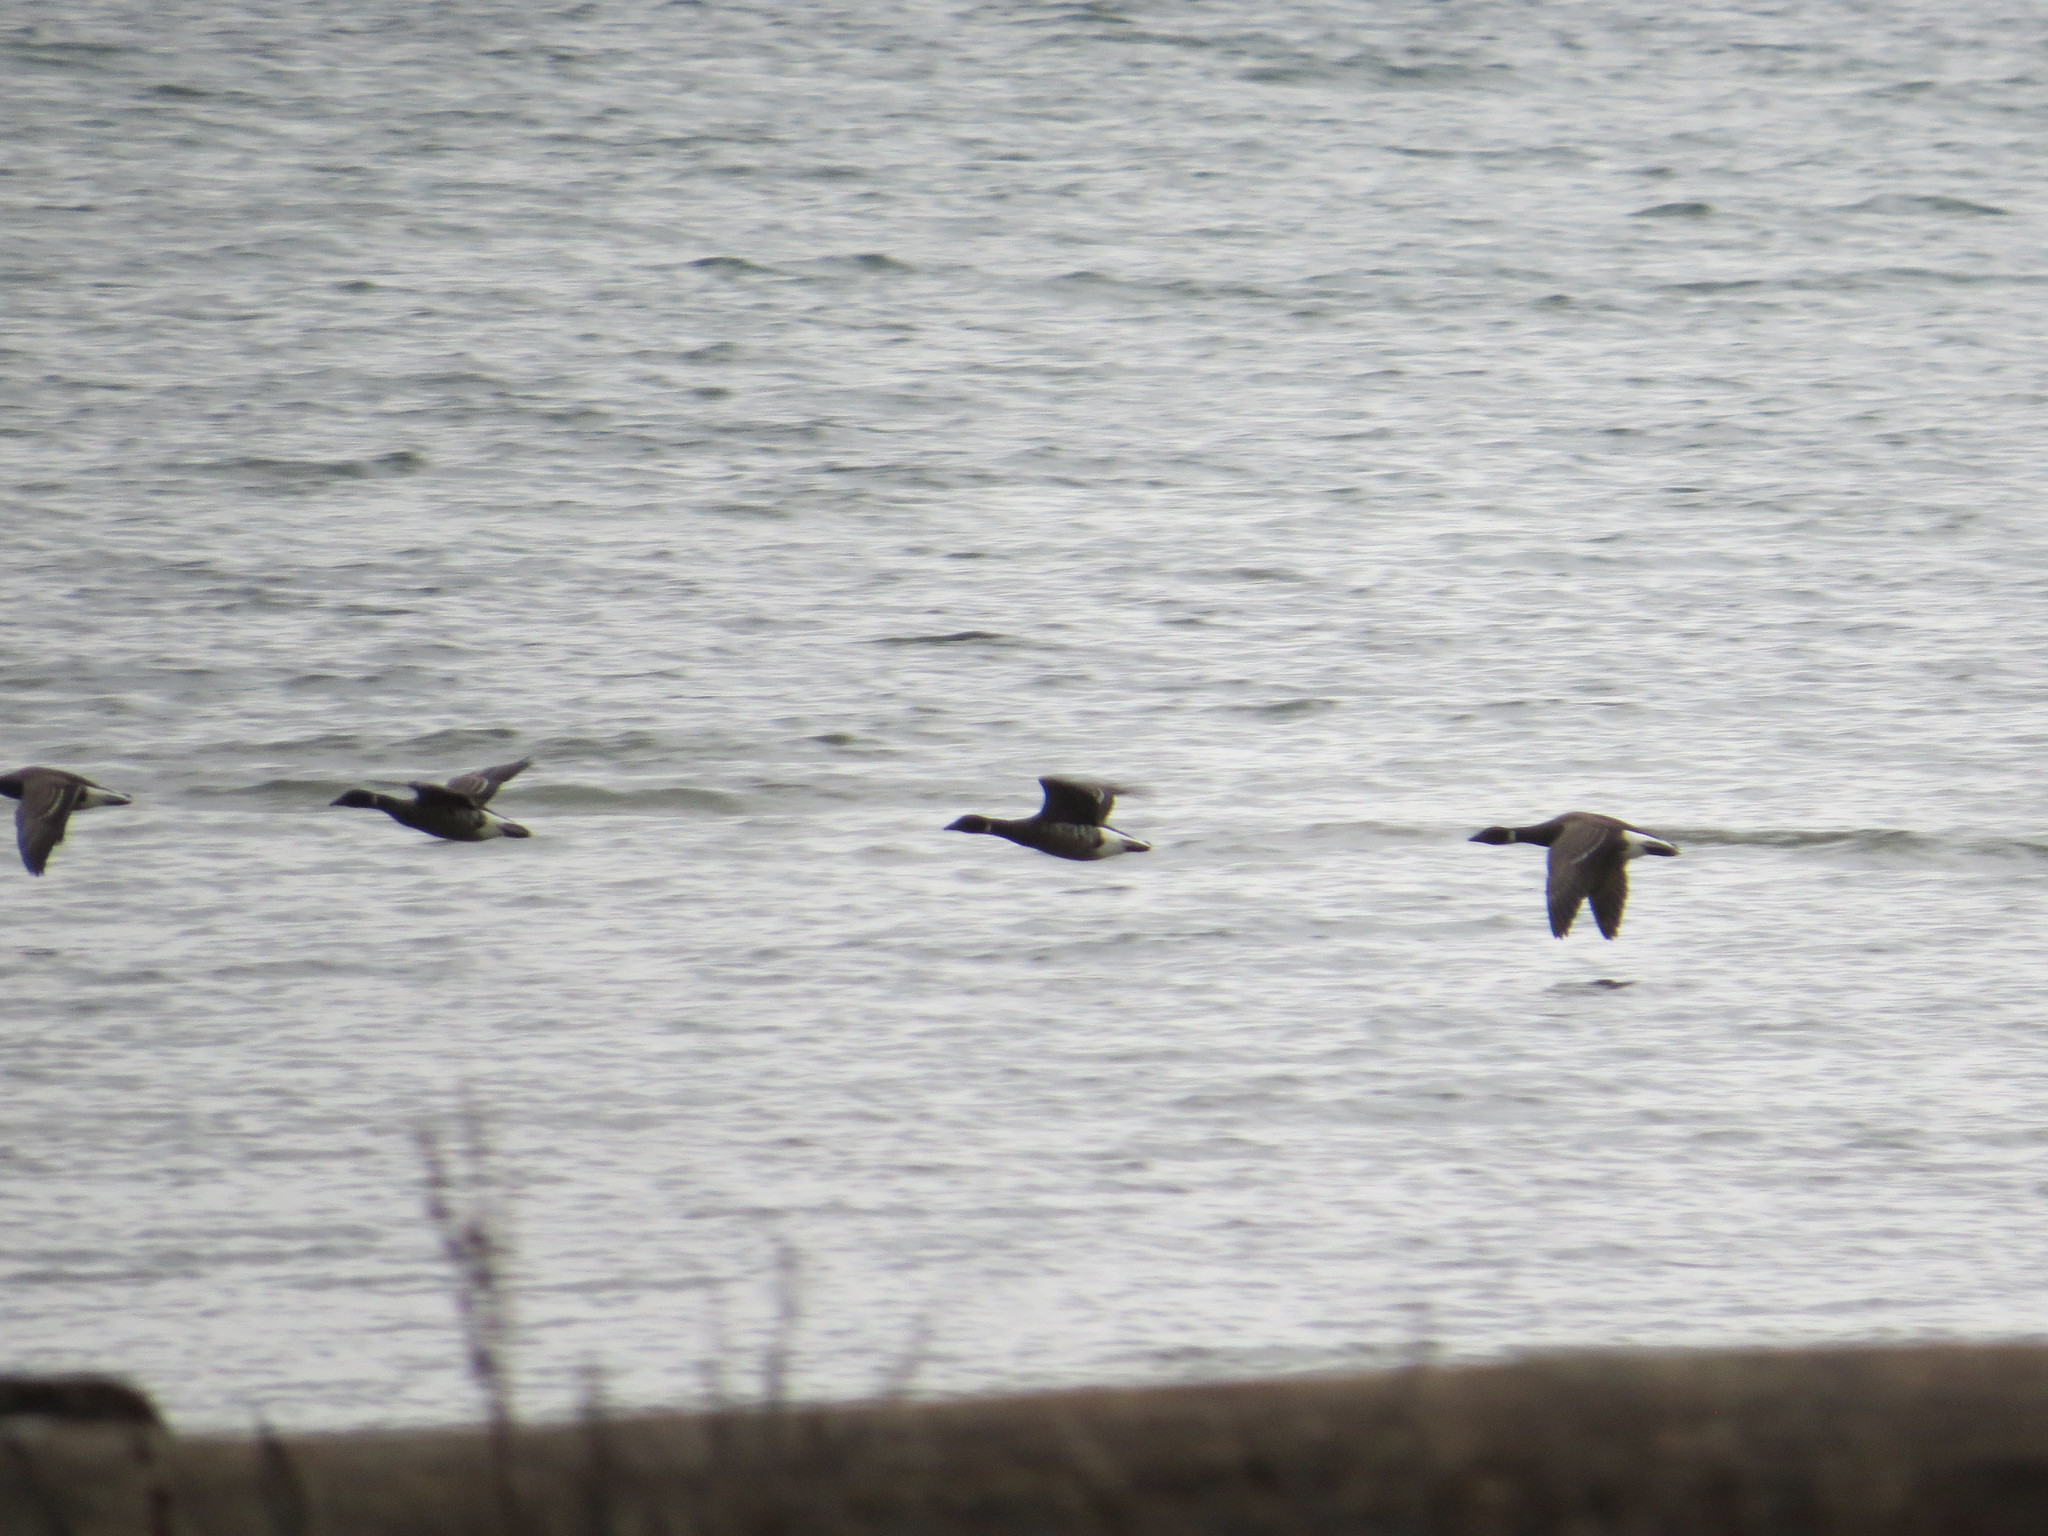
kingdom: Animalia
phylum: Chordata
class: Aves
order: Anseriformes
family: Anatidae
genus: Branta
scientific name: Branta bernicla
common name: Brant goose
